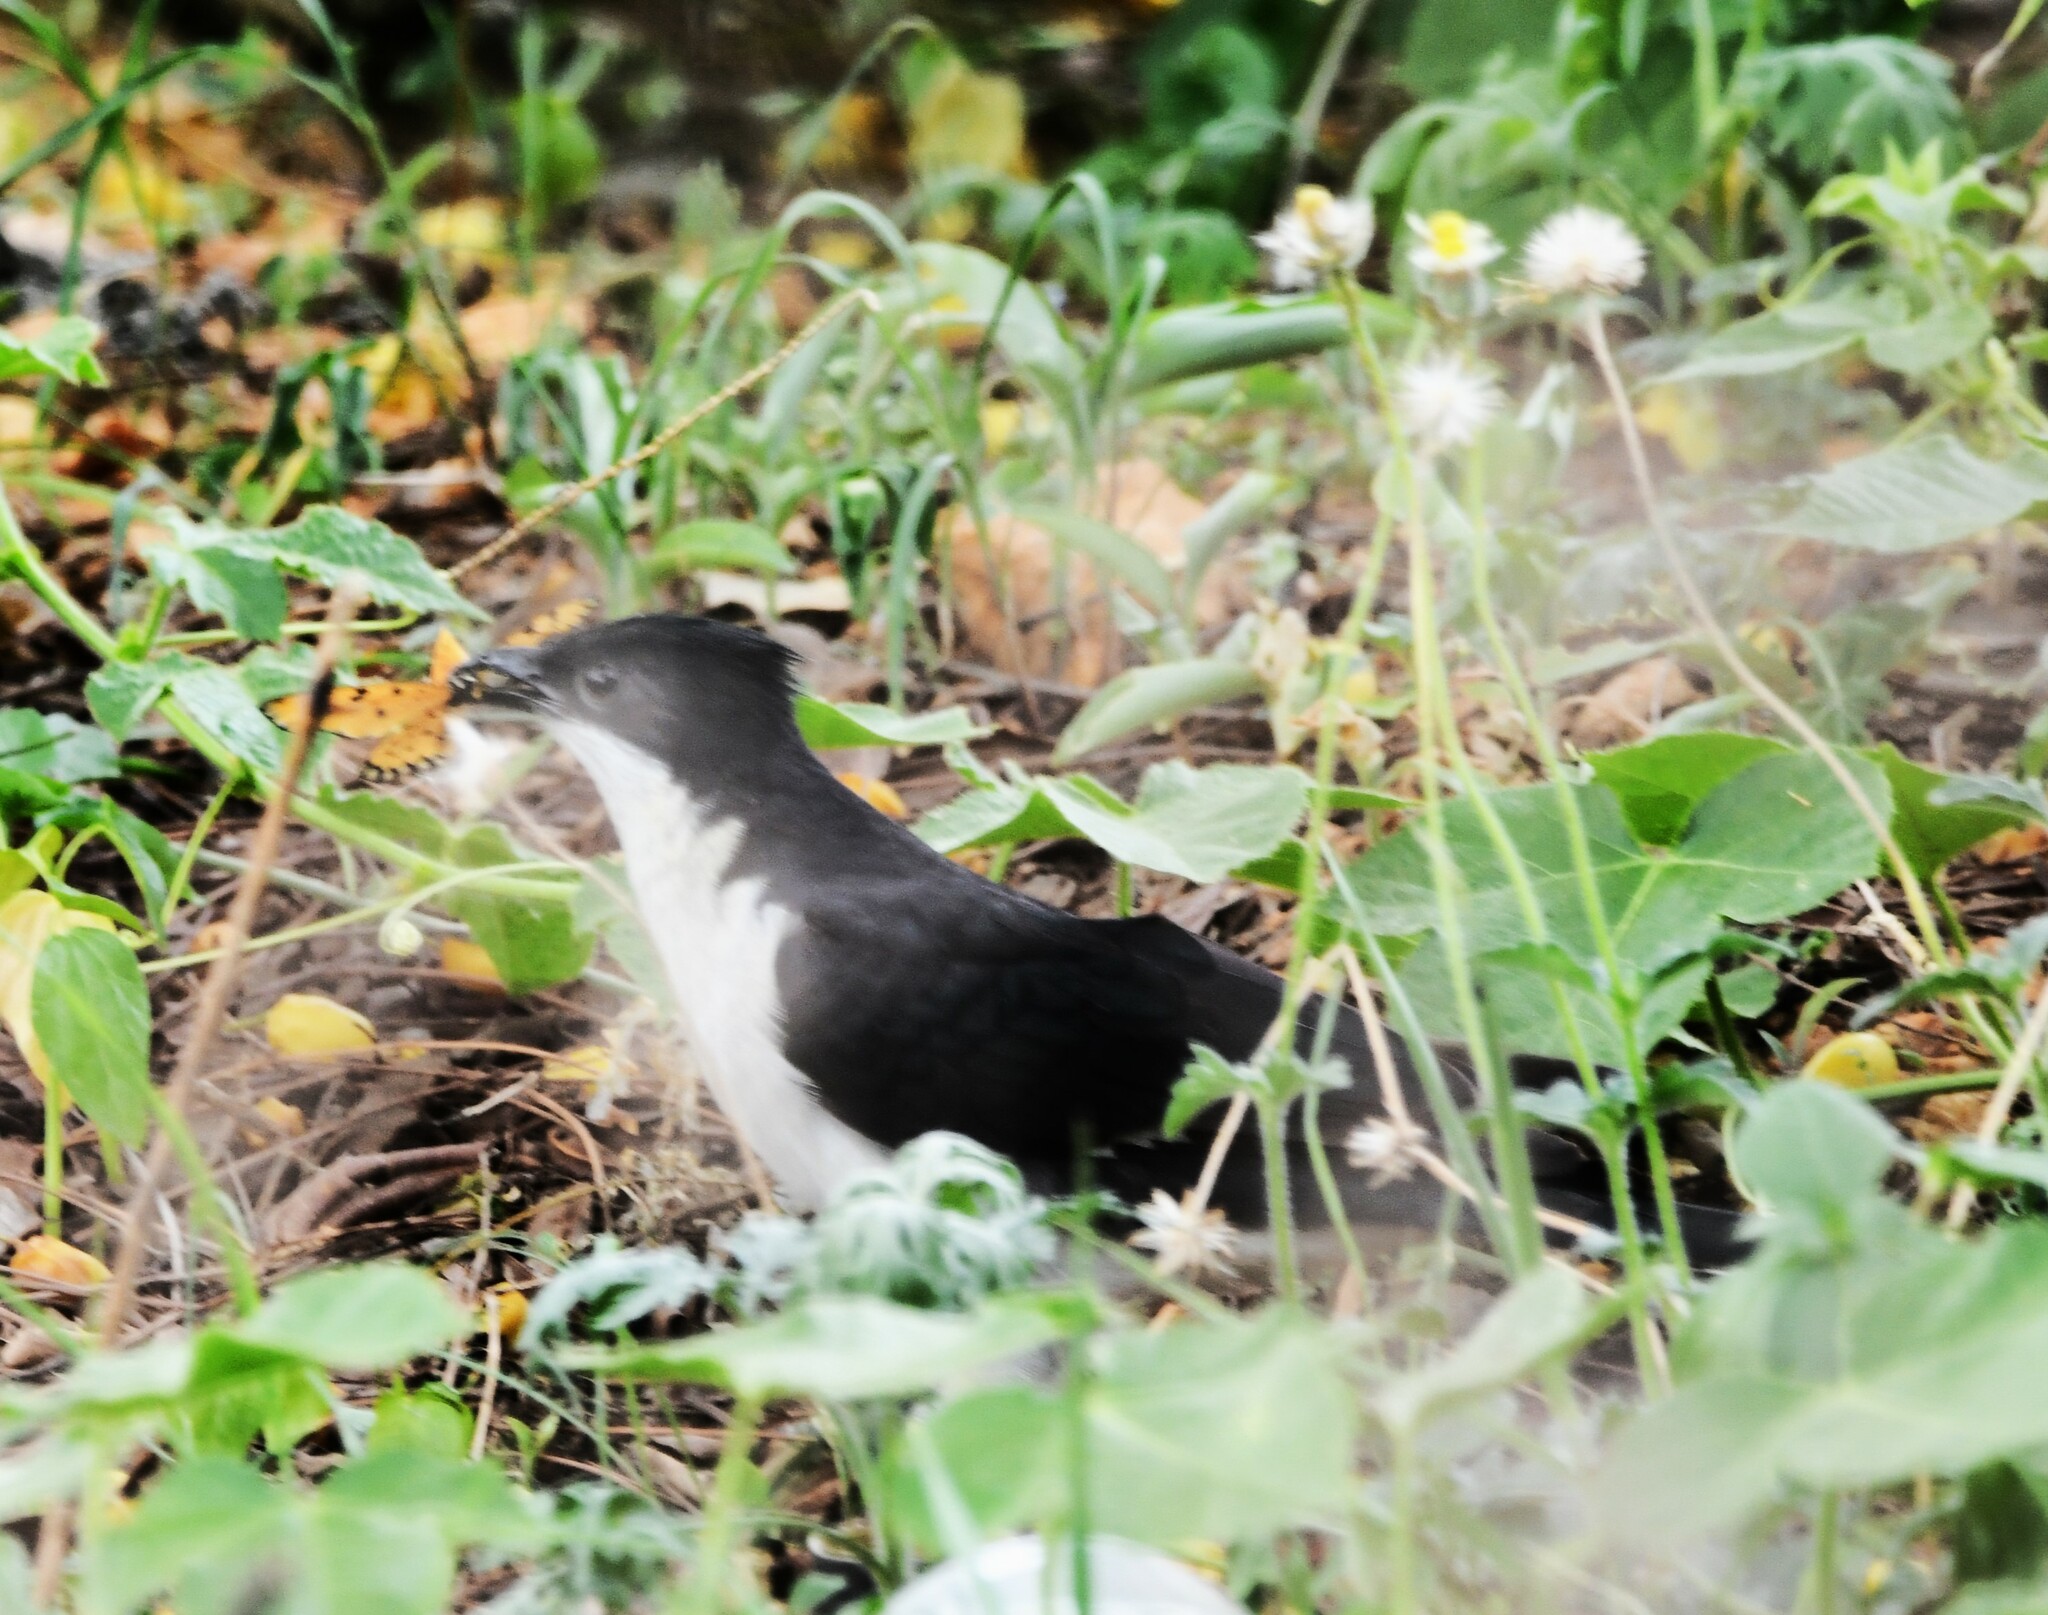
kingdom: Animalia
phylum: Chordata
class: Aves
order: Cuculiformes
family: Cuculidae
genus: Clamator
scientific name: Clamator jacobinus
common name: Jacobin cuckoo
